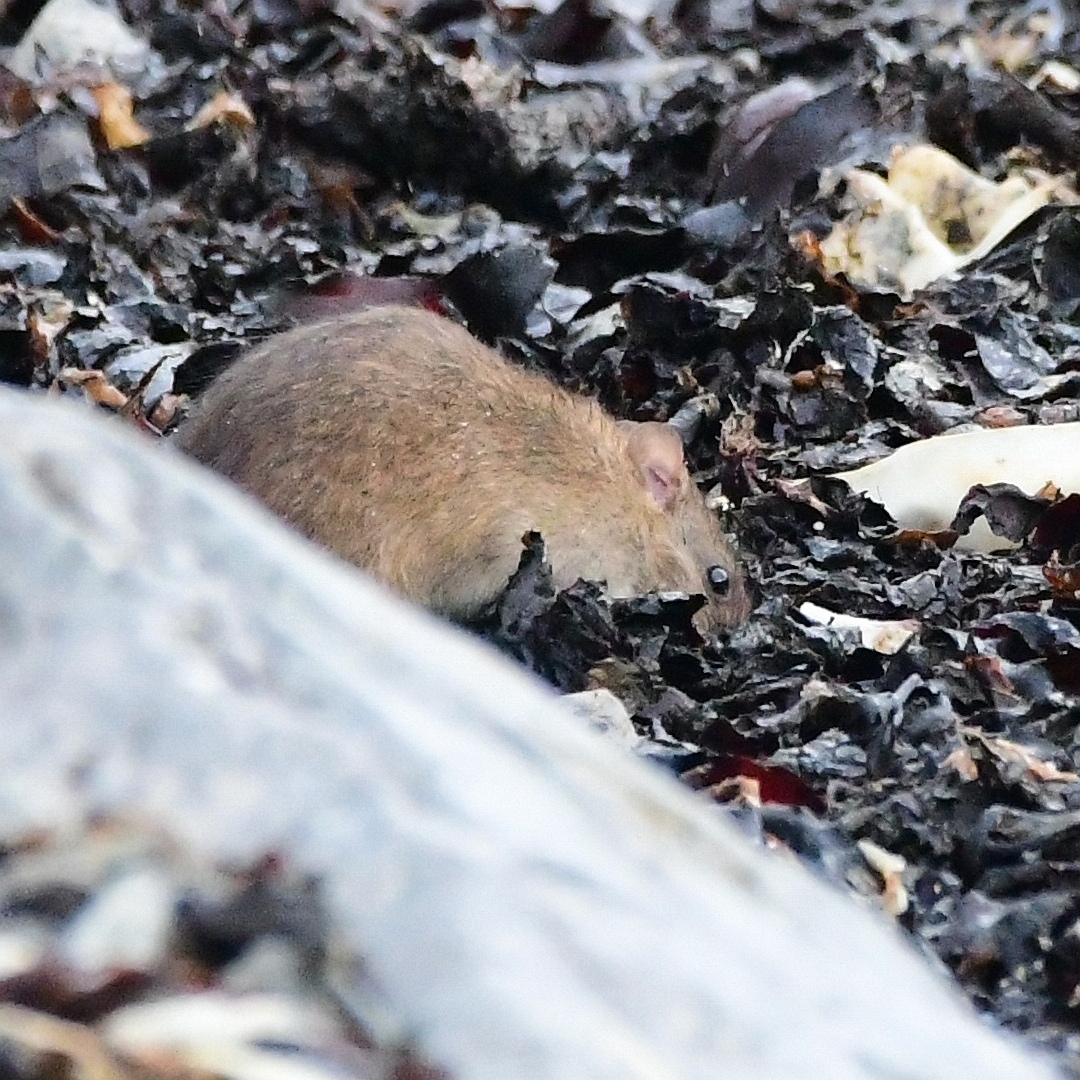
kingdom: Animalia
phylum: Chordata
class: Mammalia
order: Rodentia
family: Muridae
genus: Rattus
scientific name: Rattus norvegicus
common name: Brown rat
